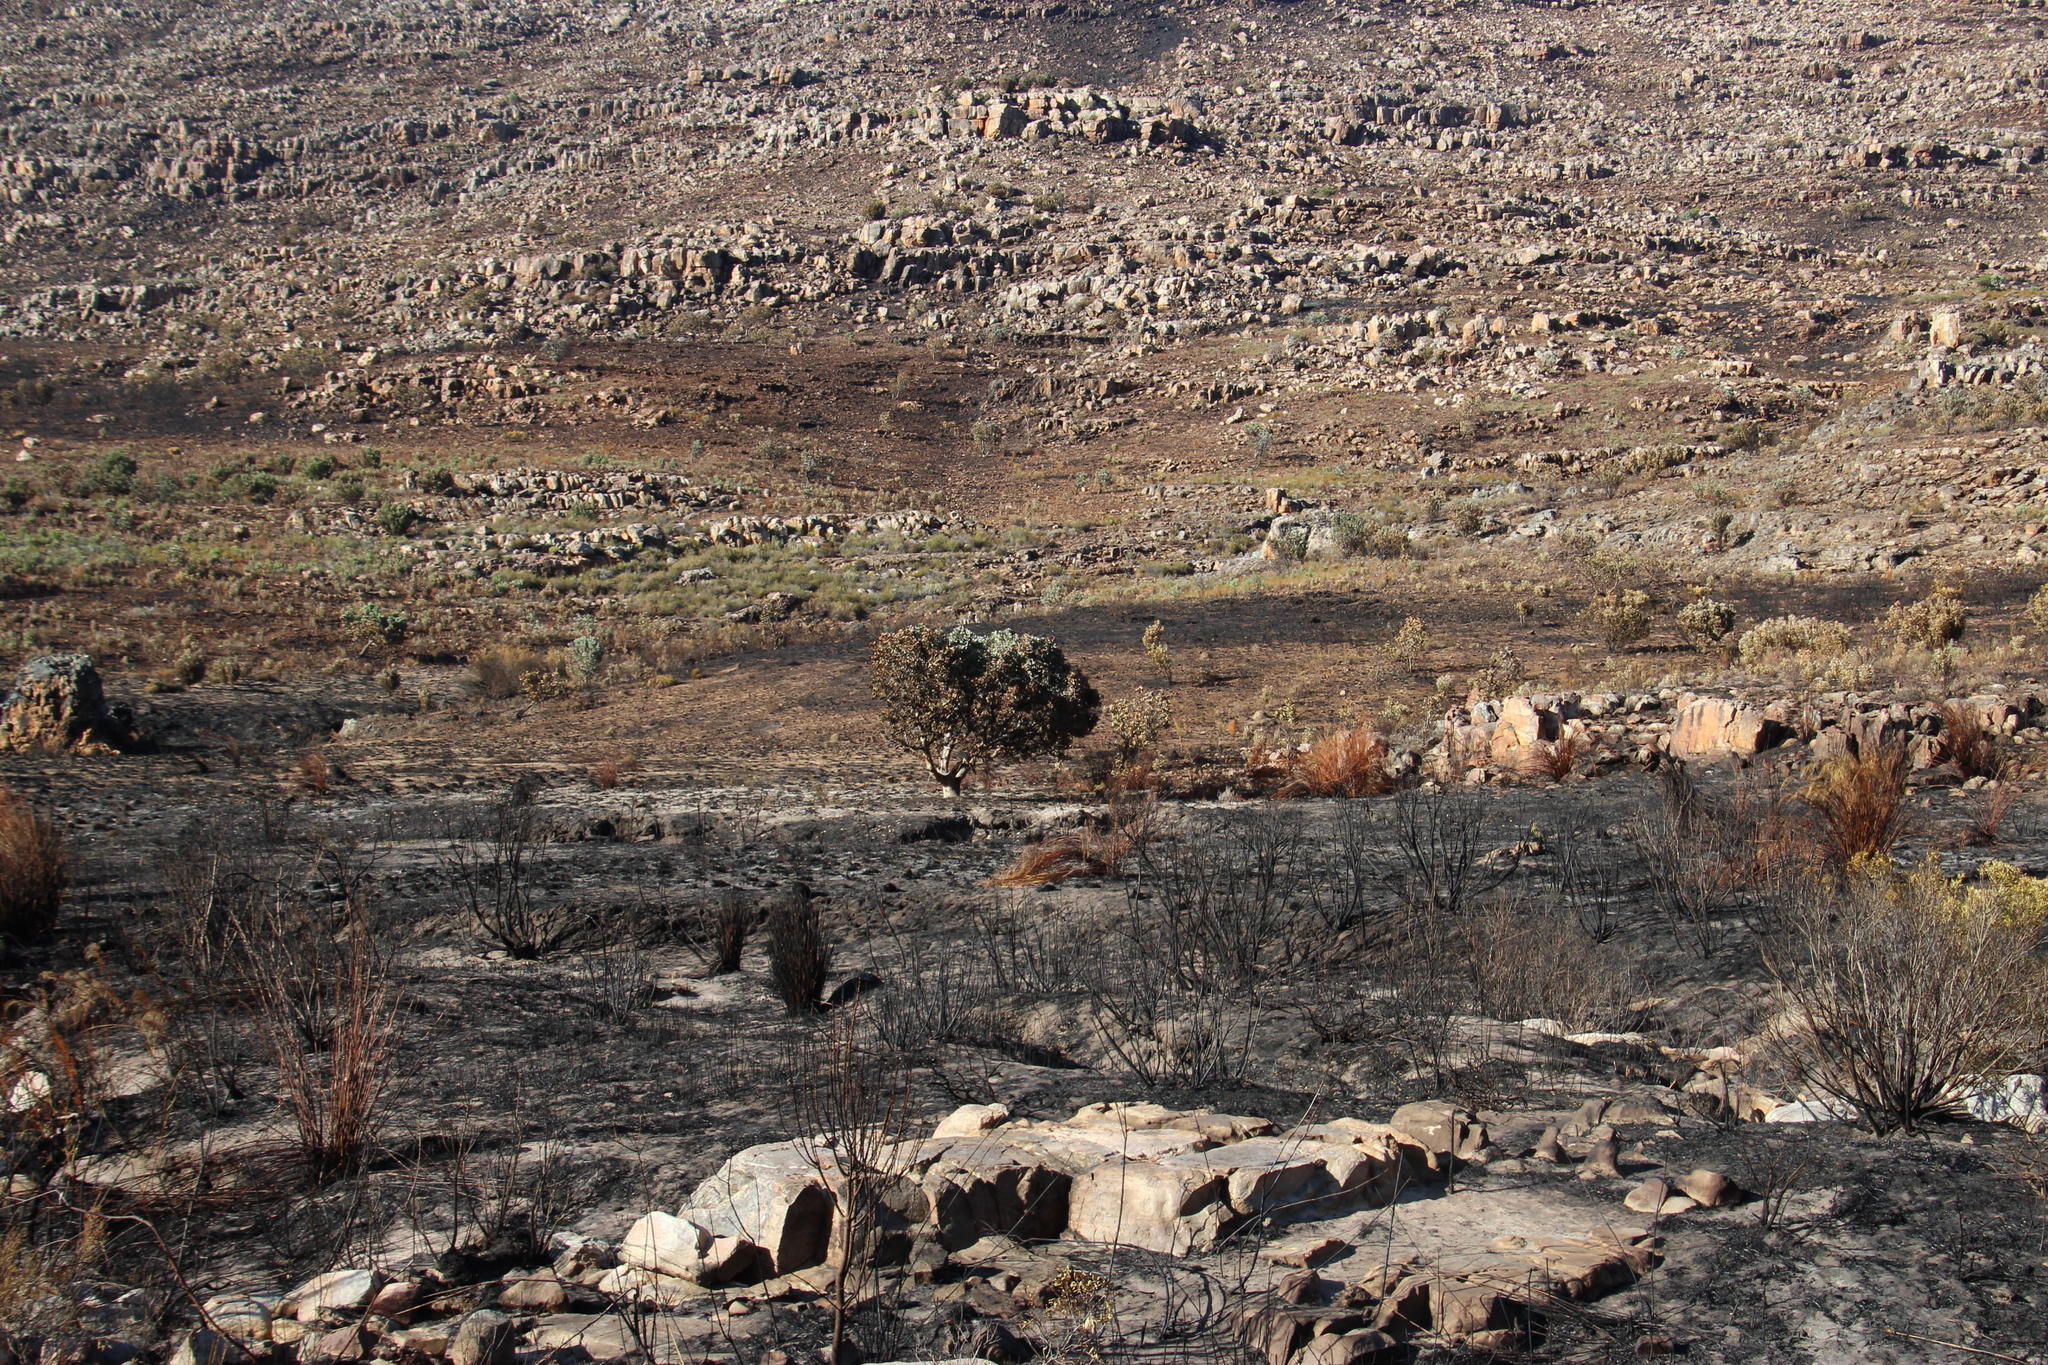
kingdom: Plantae
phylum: Tracheophyta
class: Magnoliopsida
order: Proteales
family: Proteaceae
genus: Protea
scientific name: Protea nitida
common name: Tree protea
